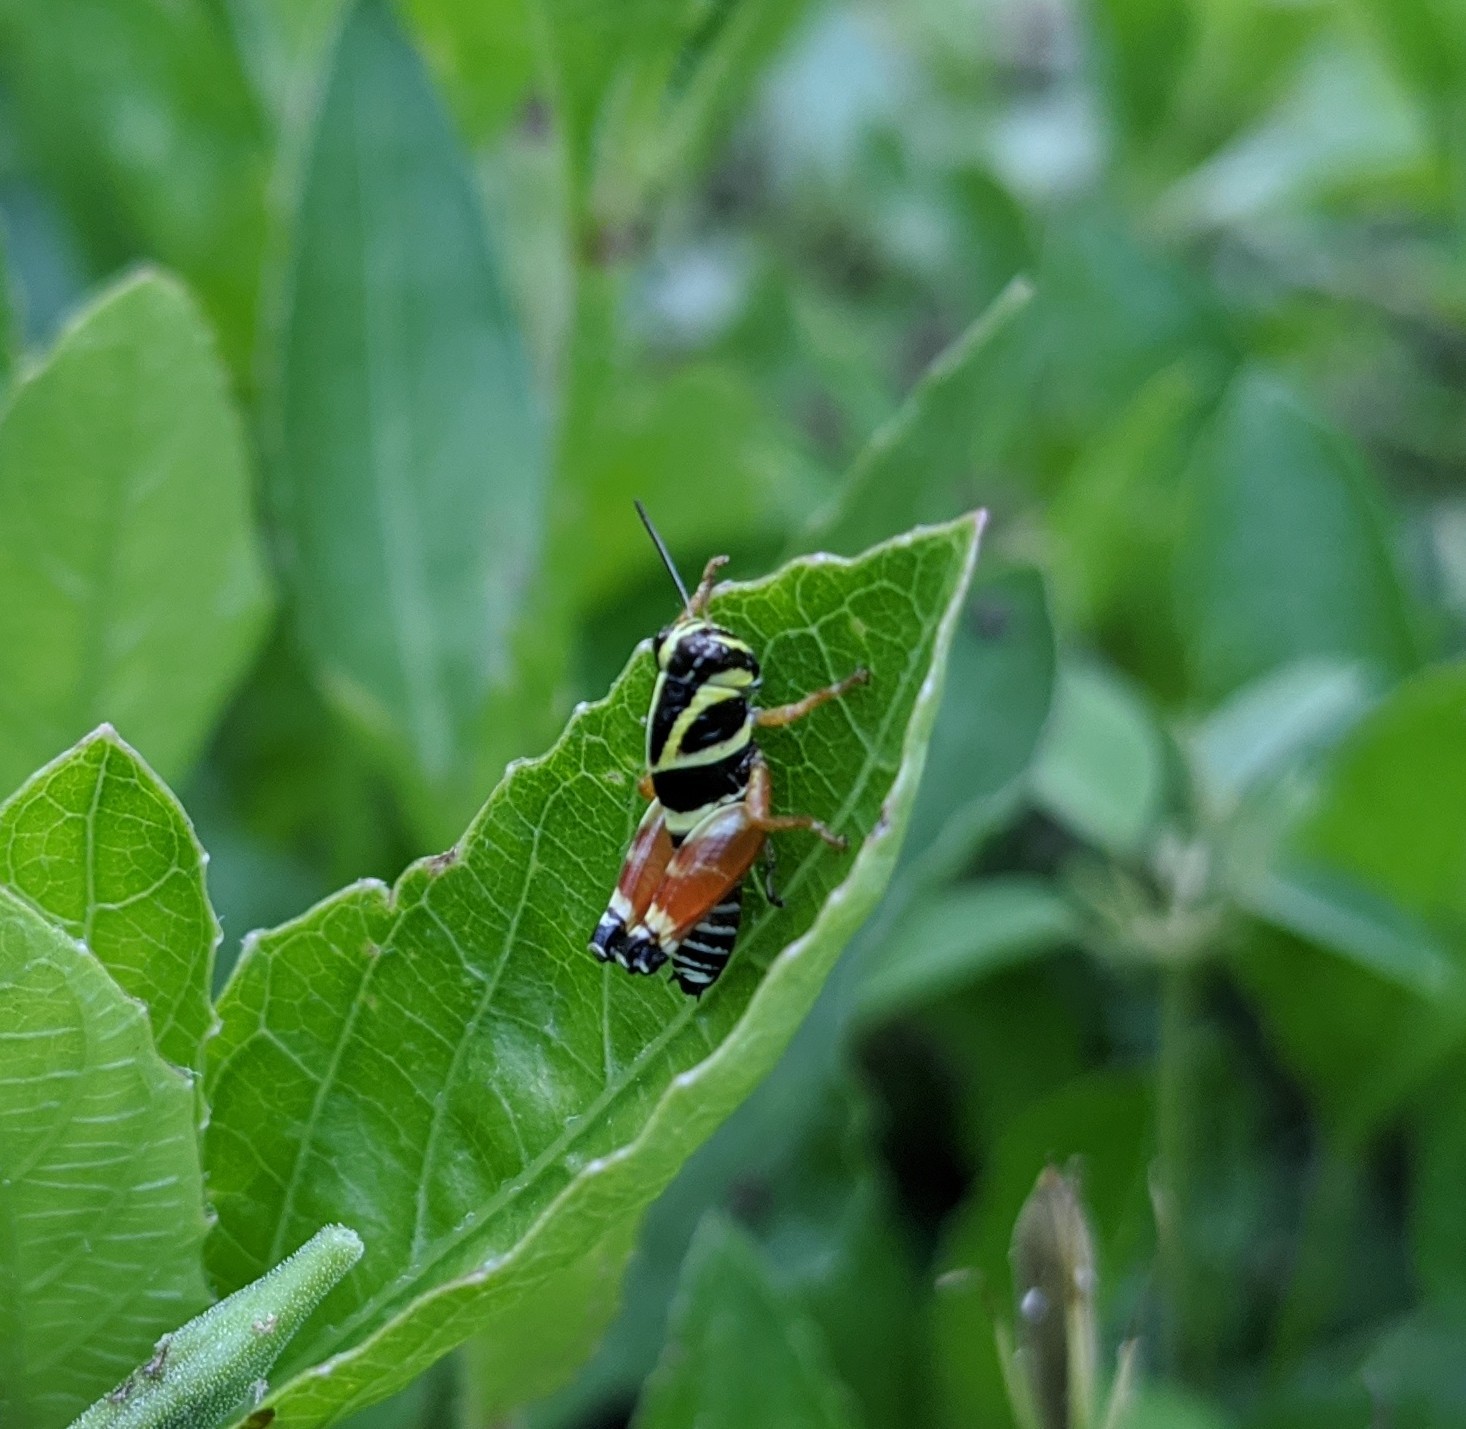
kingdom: Animalia
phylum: Arthropoda
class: Insecta
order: Orthoptera
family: Acrididae
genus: Aidemona
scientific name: Aidemona azteca
